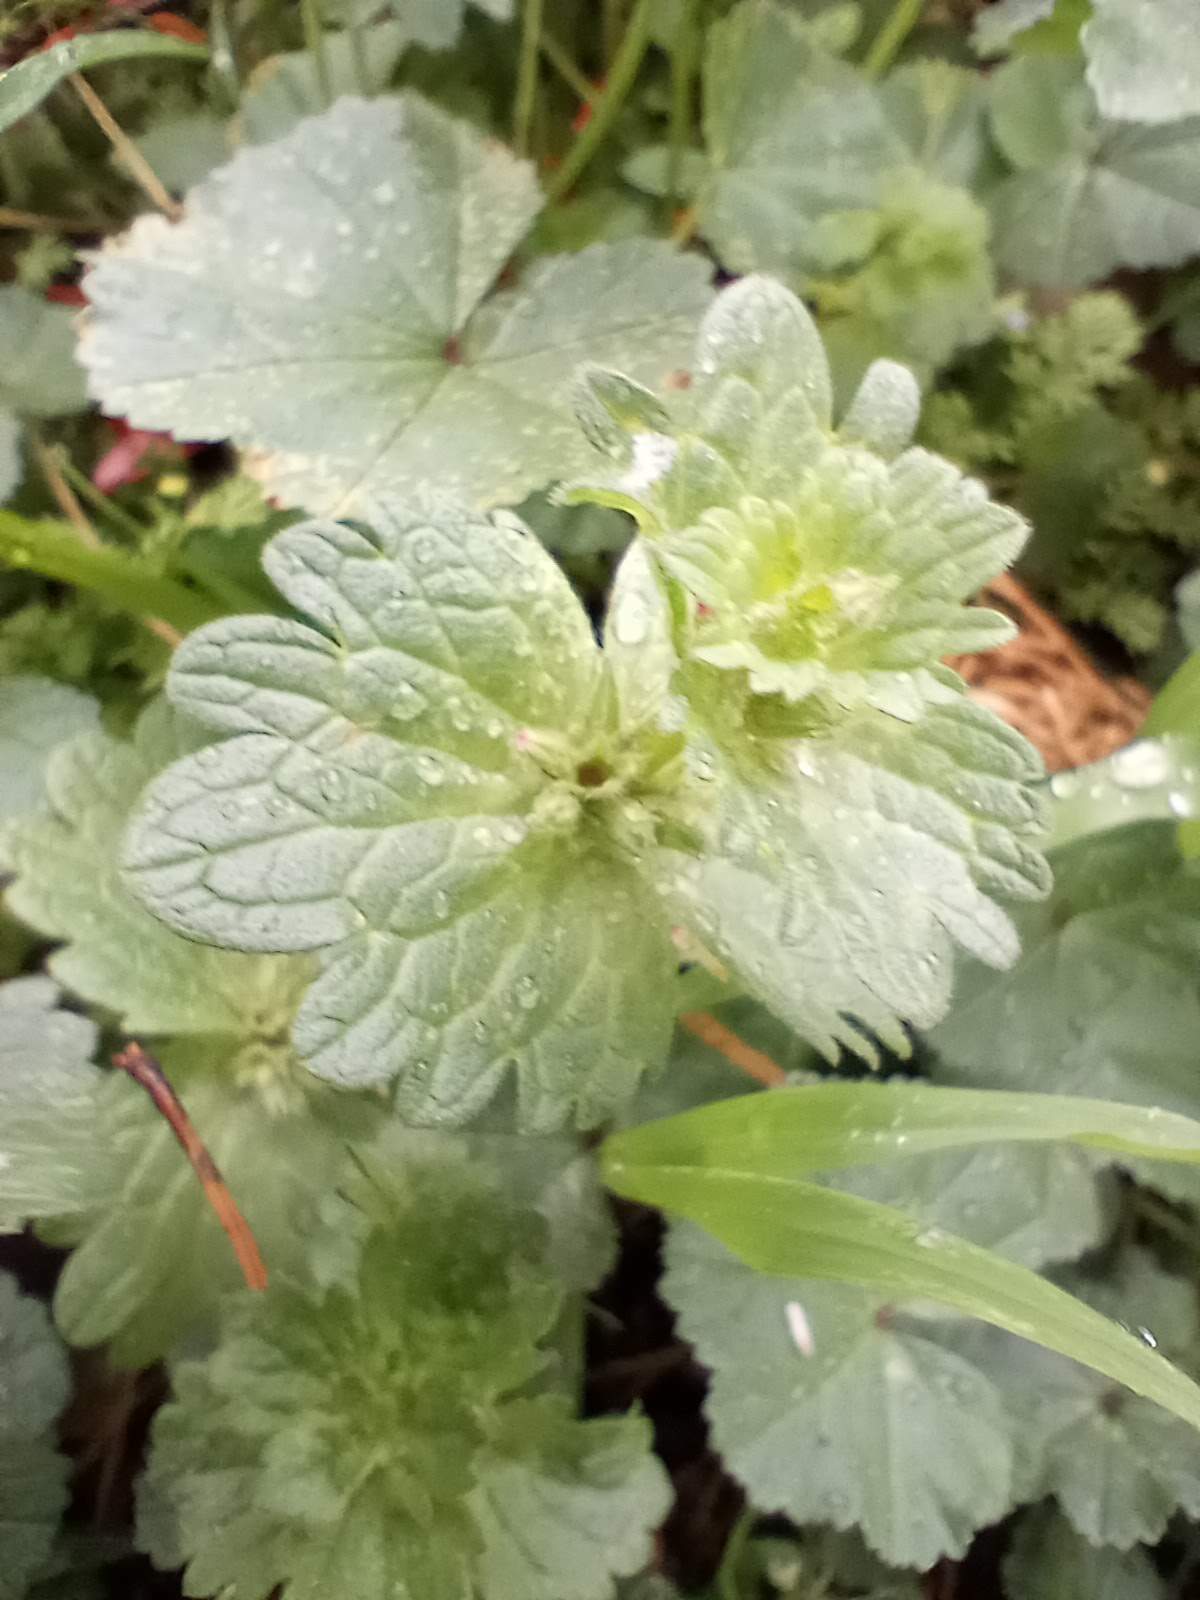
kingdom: Plantae
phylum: Tracheophyta
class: Magnoliopsida
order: Lamiales
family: Lamiaceae
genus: Lamium
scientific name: Lamium amplexicaule
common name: Henbit dead-nettle
